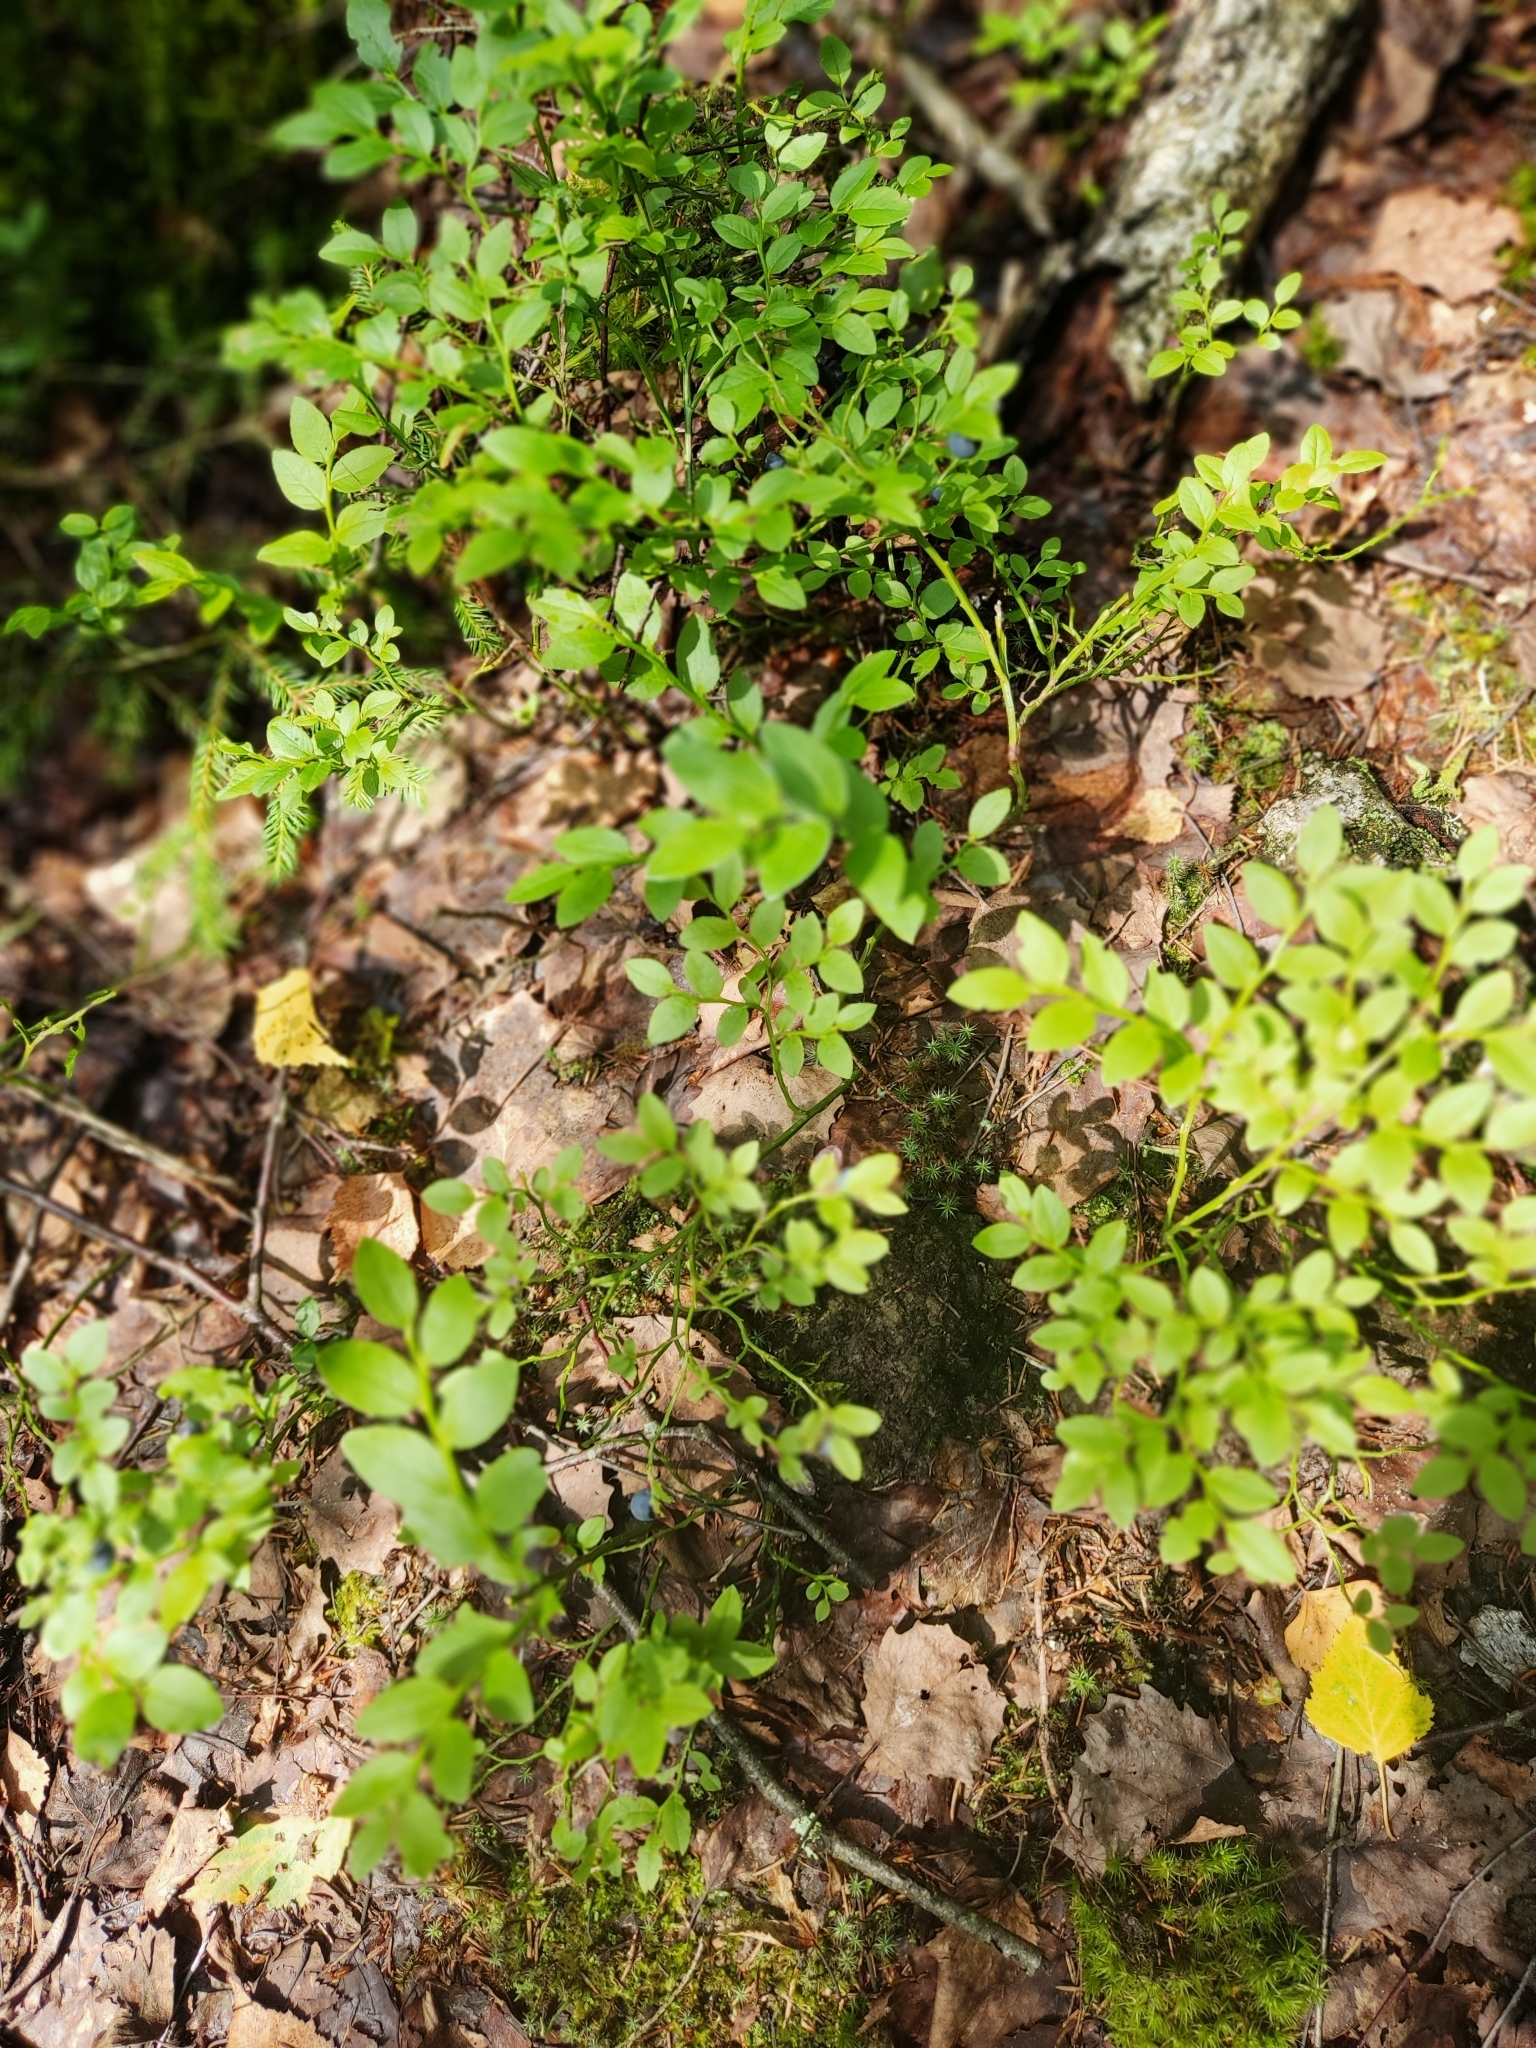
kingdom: Plantae
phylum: Tracheophyta
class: Magnoliopsida
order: Ericales
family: Ericaceae
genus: Vaccinium
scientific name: Vaccinium myrtillus
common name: Bilberry
